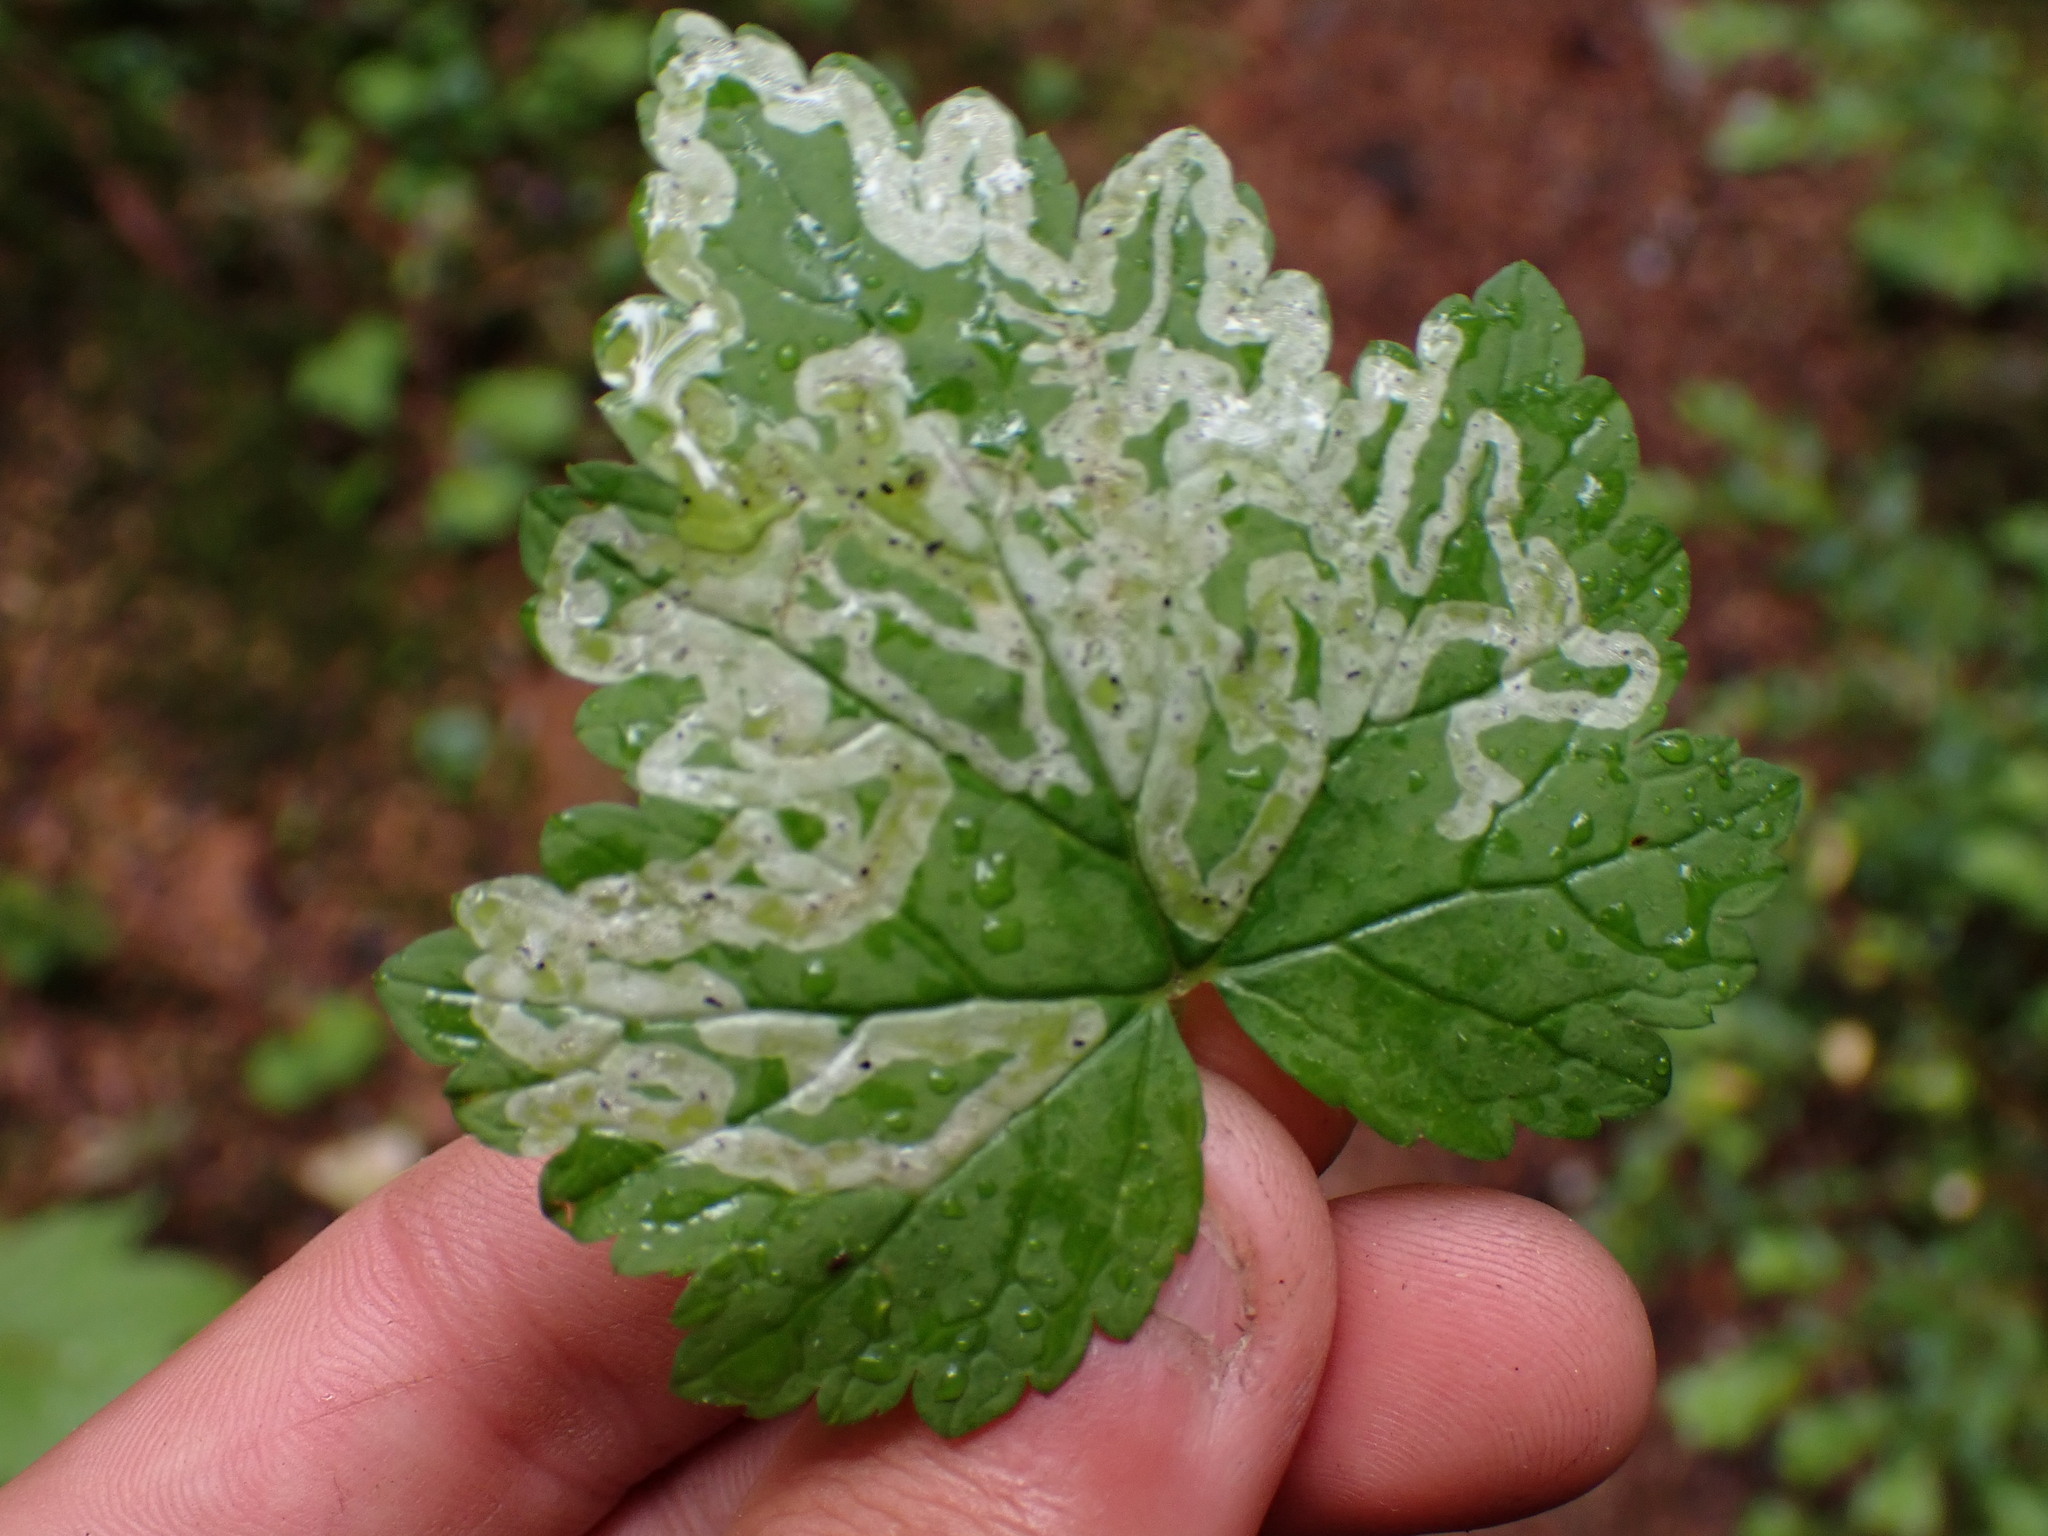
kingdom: Animalia
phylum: Arthropoda
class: Insecta
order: Diptera
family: Agromyzidae
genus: Phytomyza
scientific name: Phytomyza tiarellae
